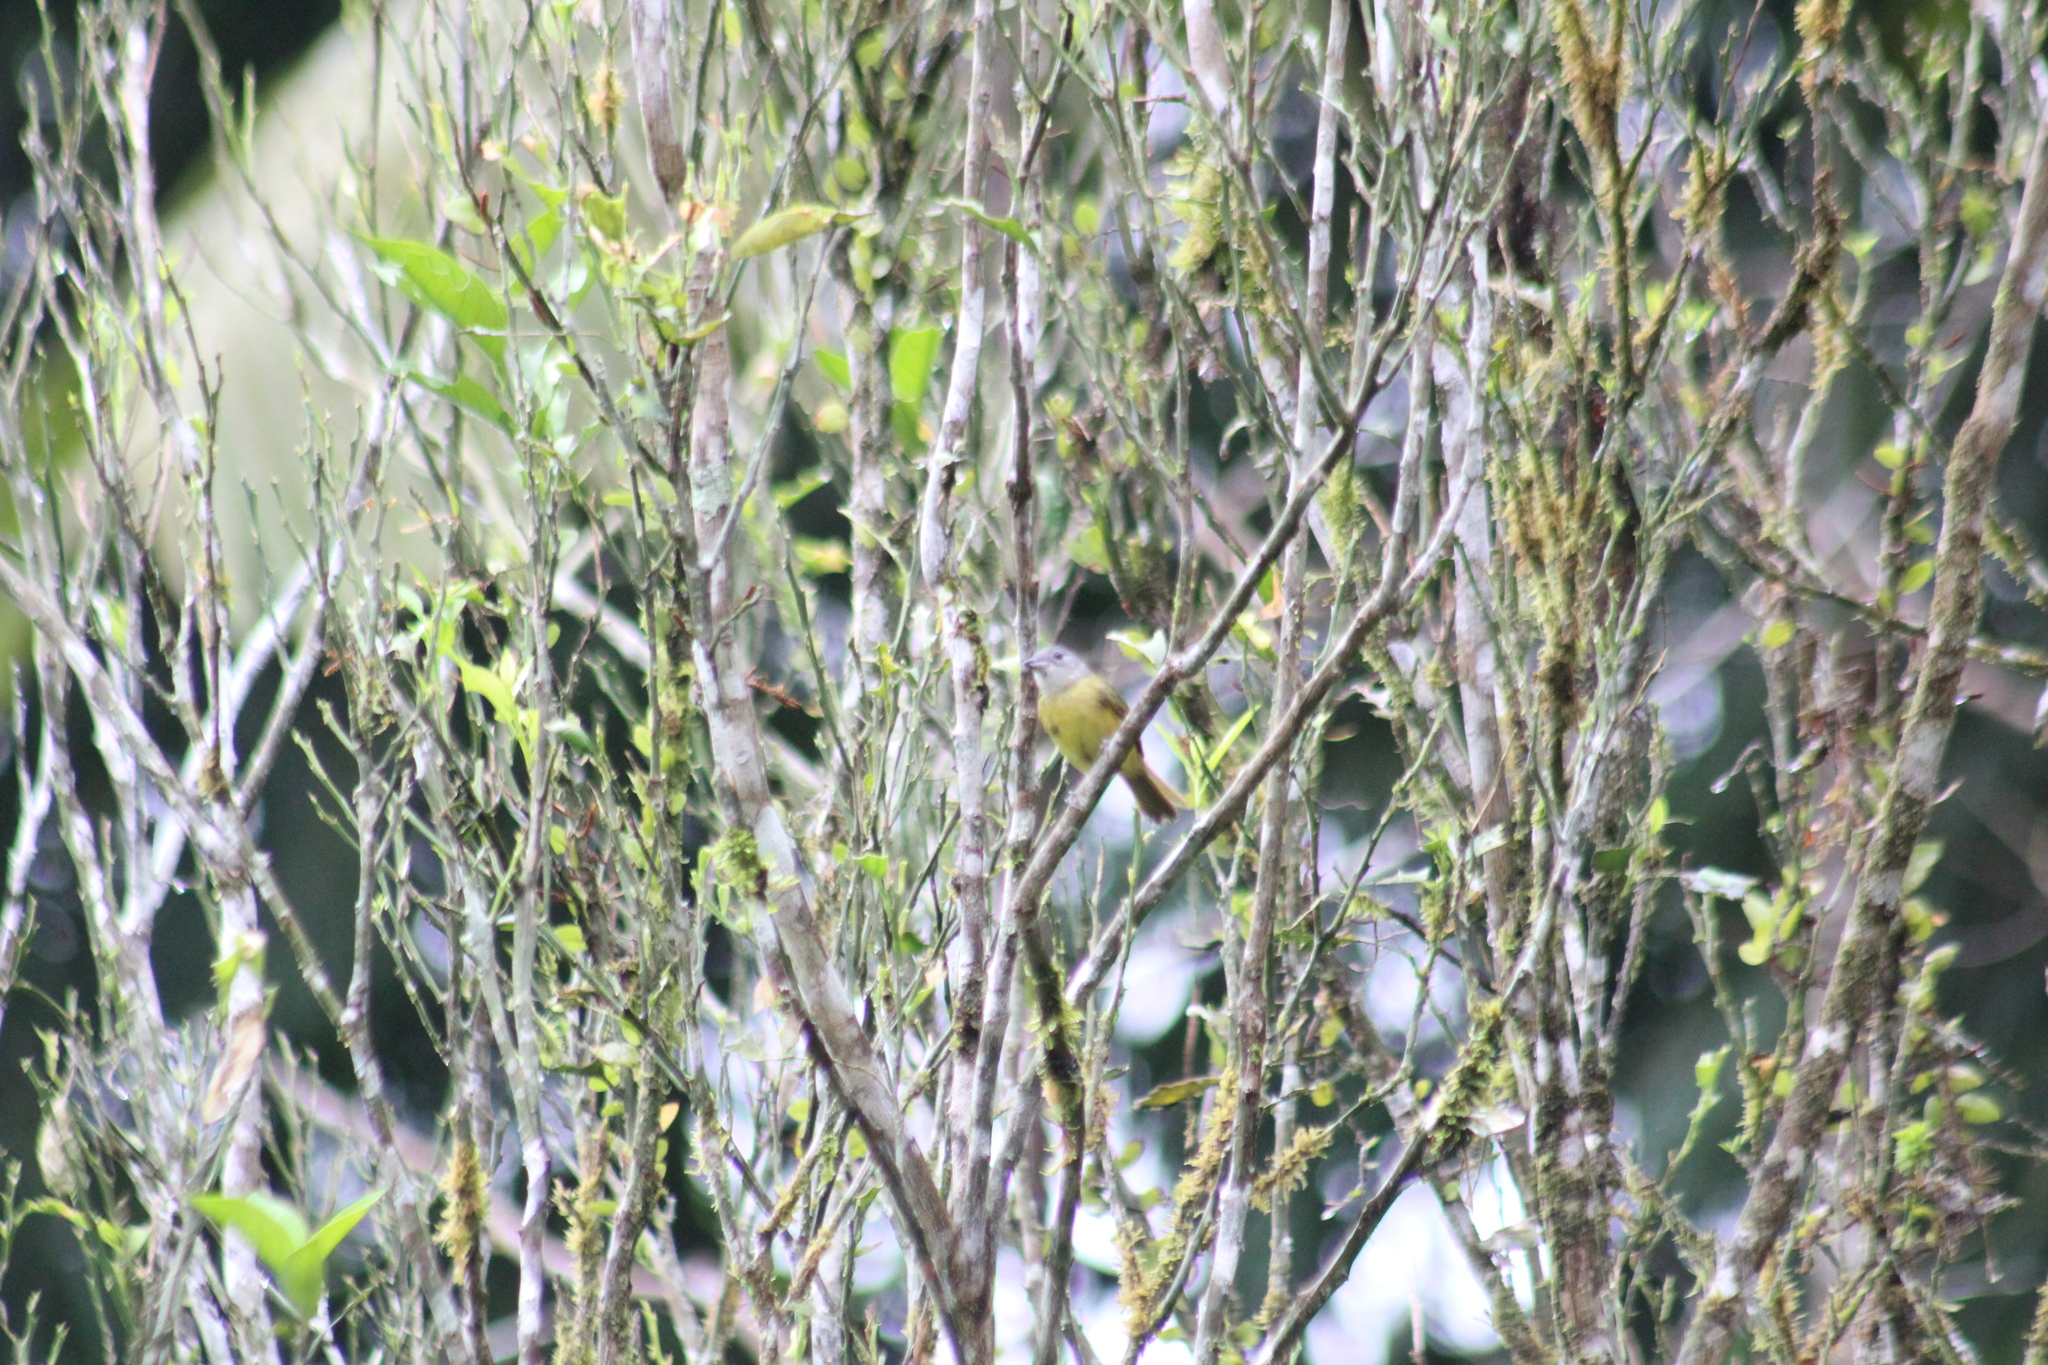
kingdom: Animalia
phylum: Chordata
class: Aves
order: Passeriformes
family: Thraupidae
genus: Loriotus
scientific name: Loriotus luctuosus
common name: White-shouldered tanager
